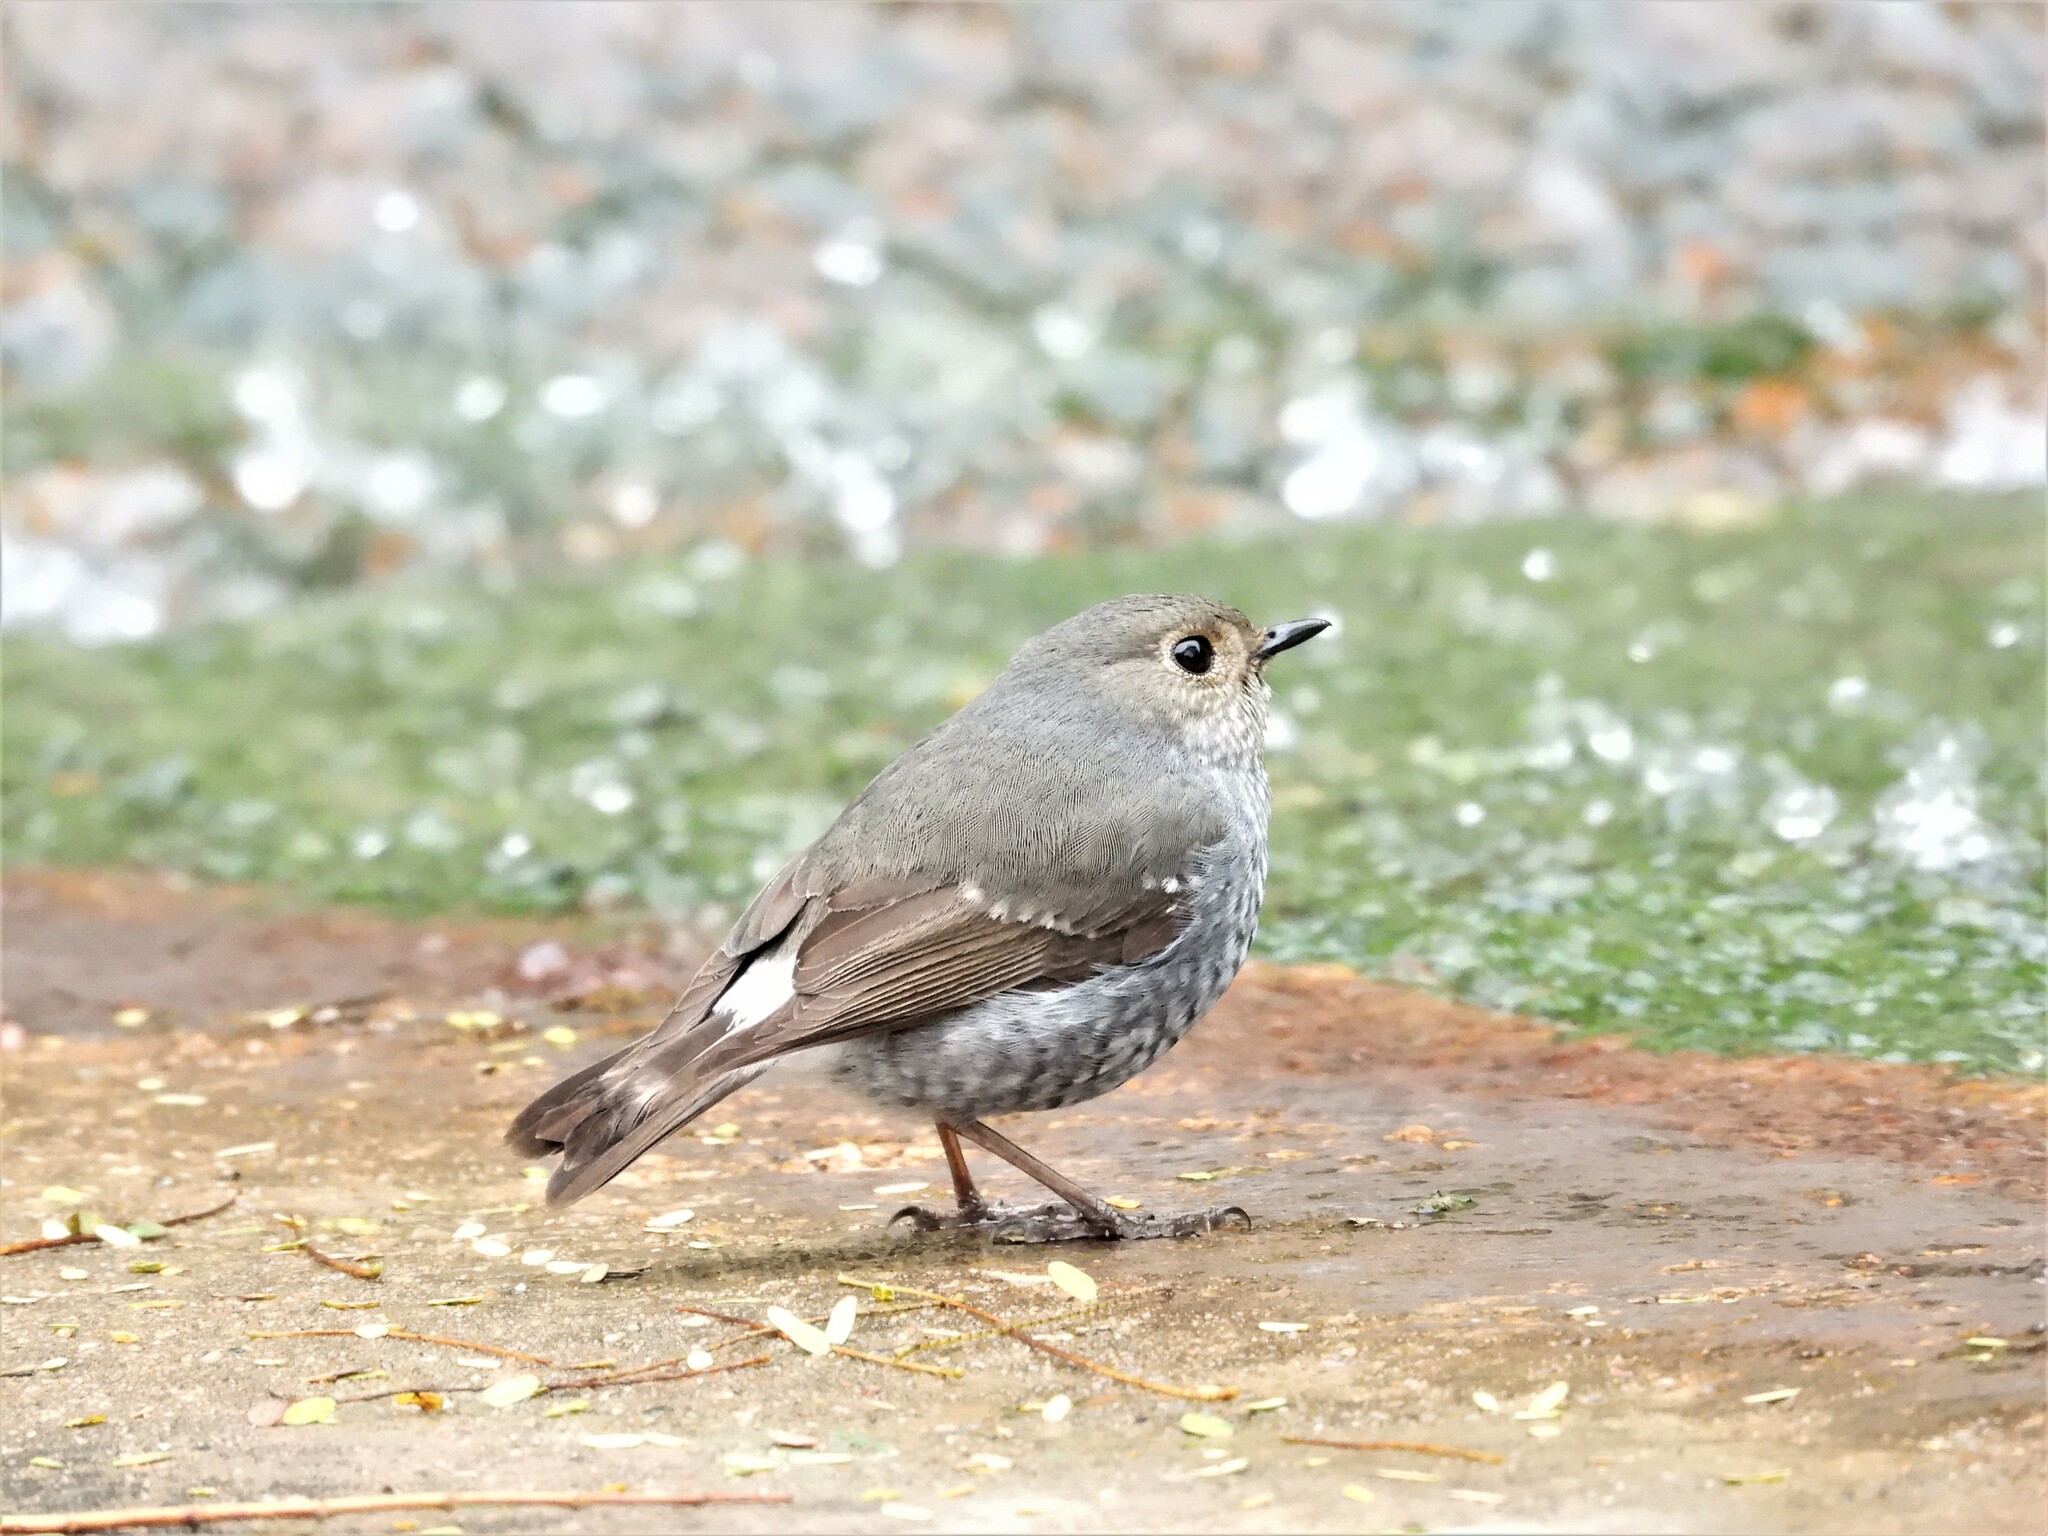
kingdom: Animalia
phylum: Chordata
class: Aves
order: Passeriformes
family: Muscicapidae
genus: Phoenicurus
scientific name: Phoenicurus fuliginosus
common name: Plumbeous water redstart
